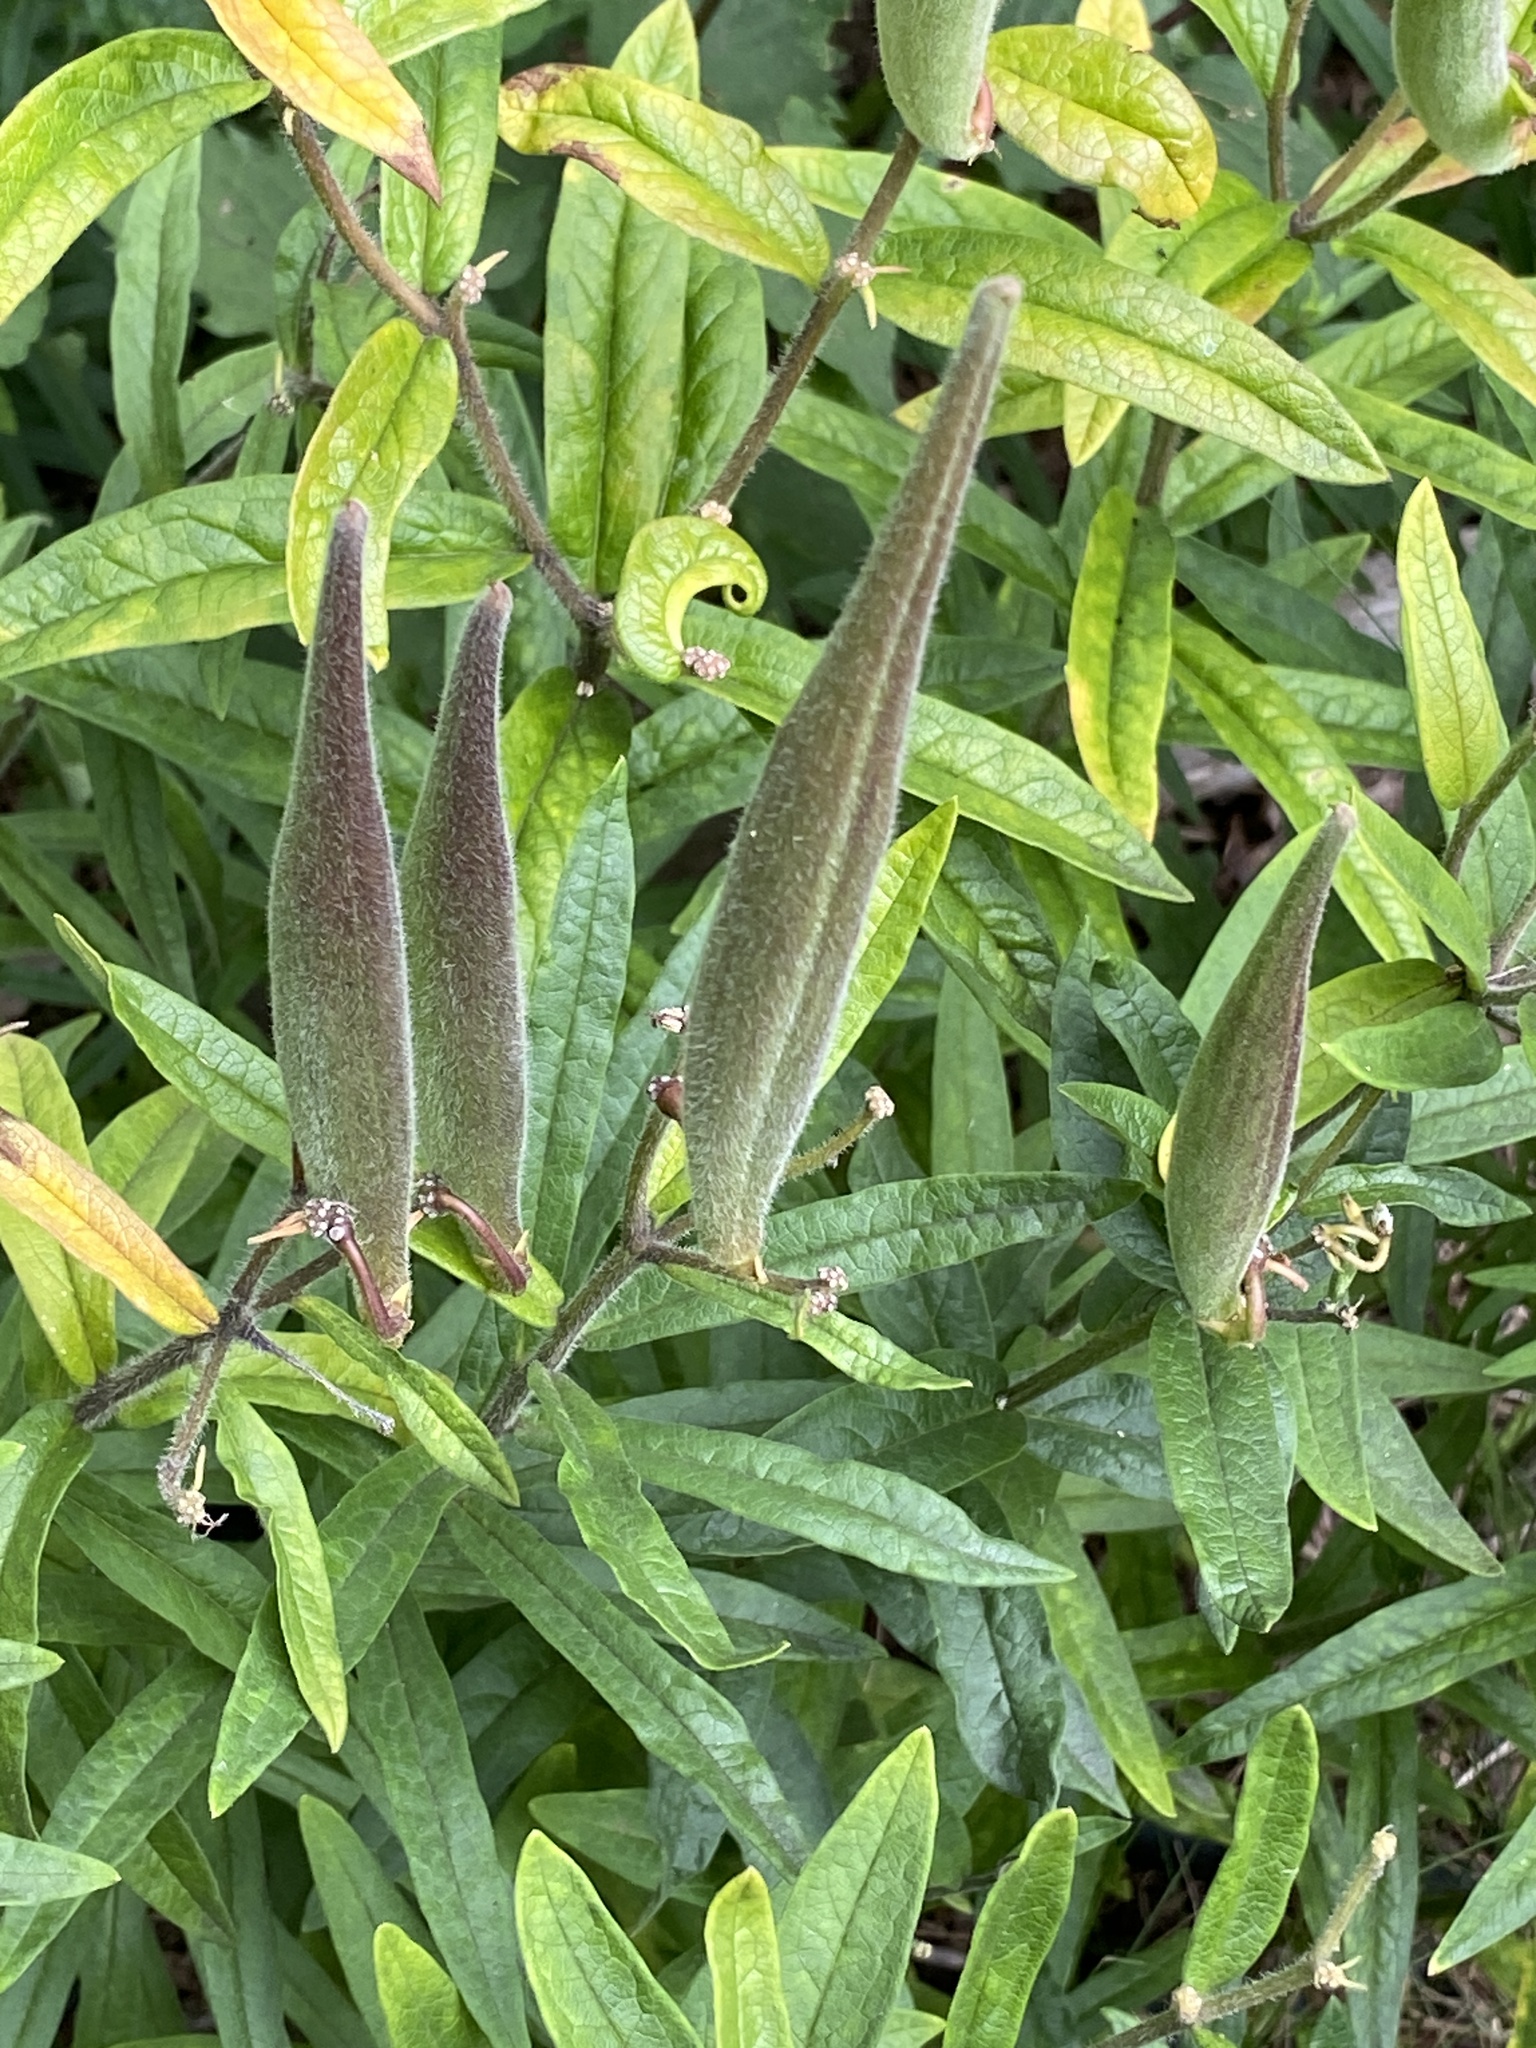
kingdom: Plantae
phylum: Tracheophyta
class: Magnoliopsida
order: Gentianales
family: Apocynaceae
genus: Asclepias
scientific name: Asclepias tuberosa
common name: Butterfly milkweed
